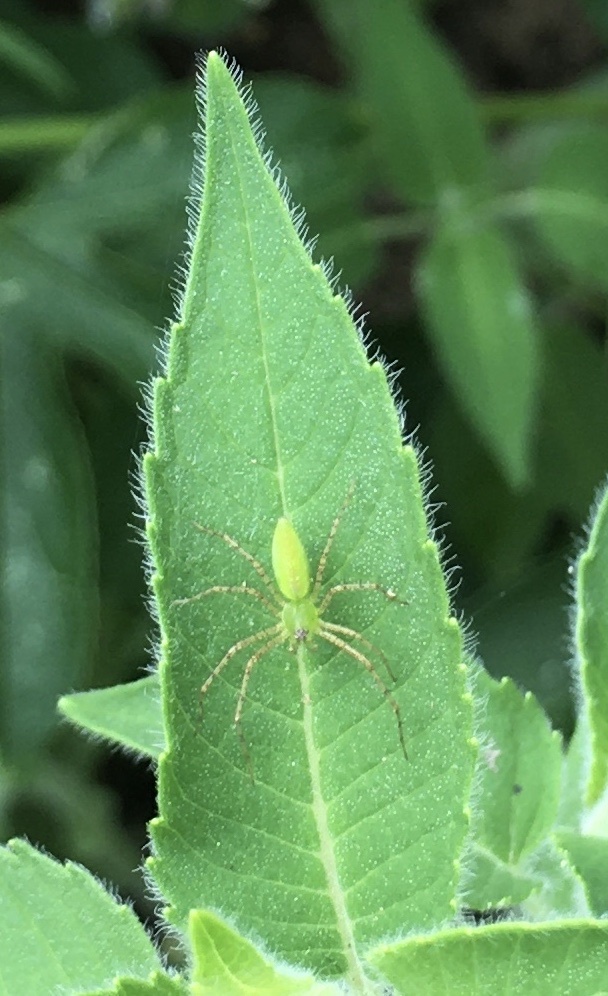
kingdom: Animalia
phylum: Arthropoda
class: Arachnida
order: Araneae
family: Oxyopidae
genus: Peucetia
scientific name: Peucetia viridans
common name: Lynx spiders
